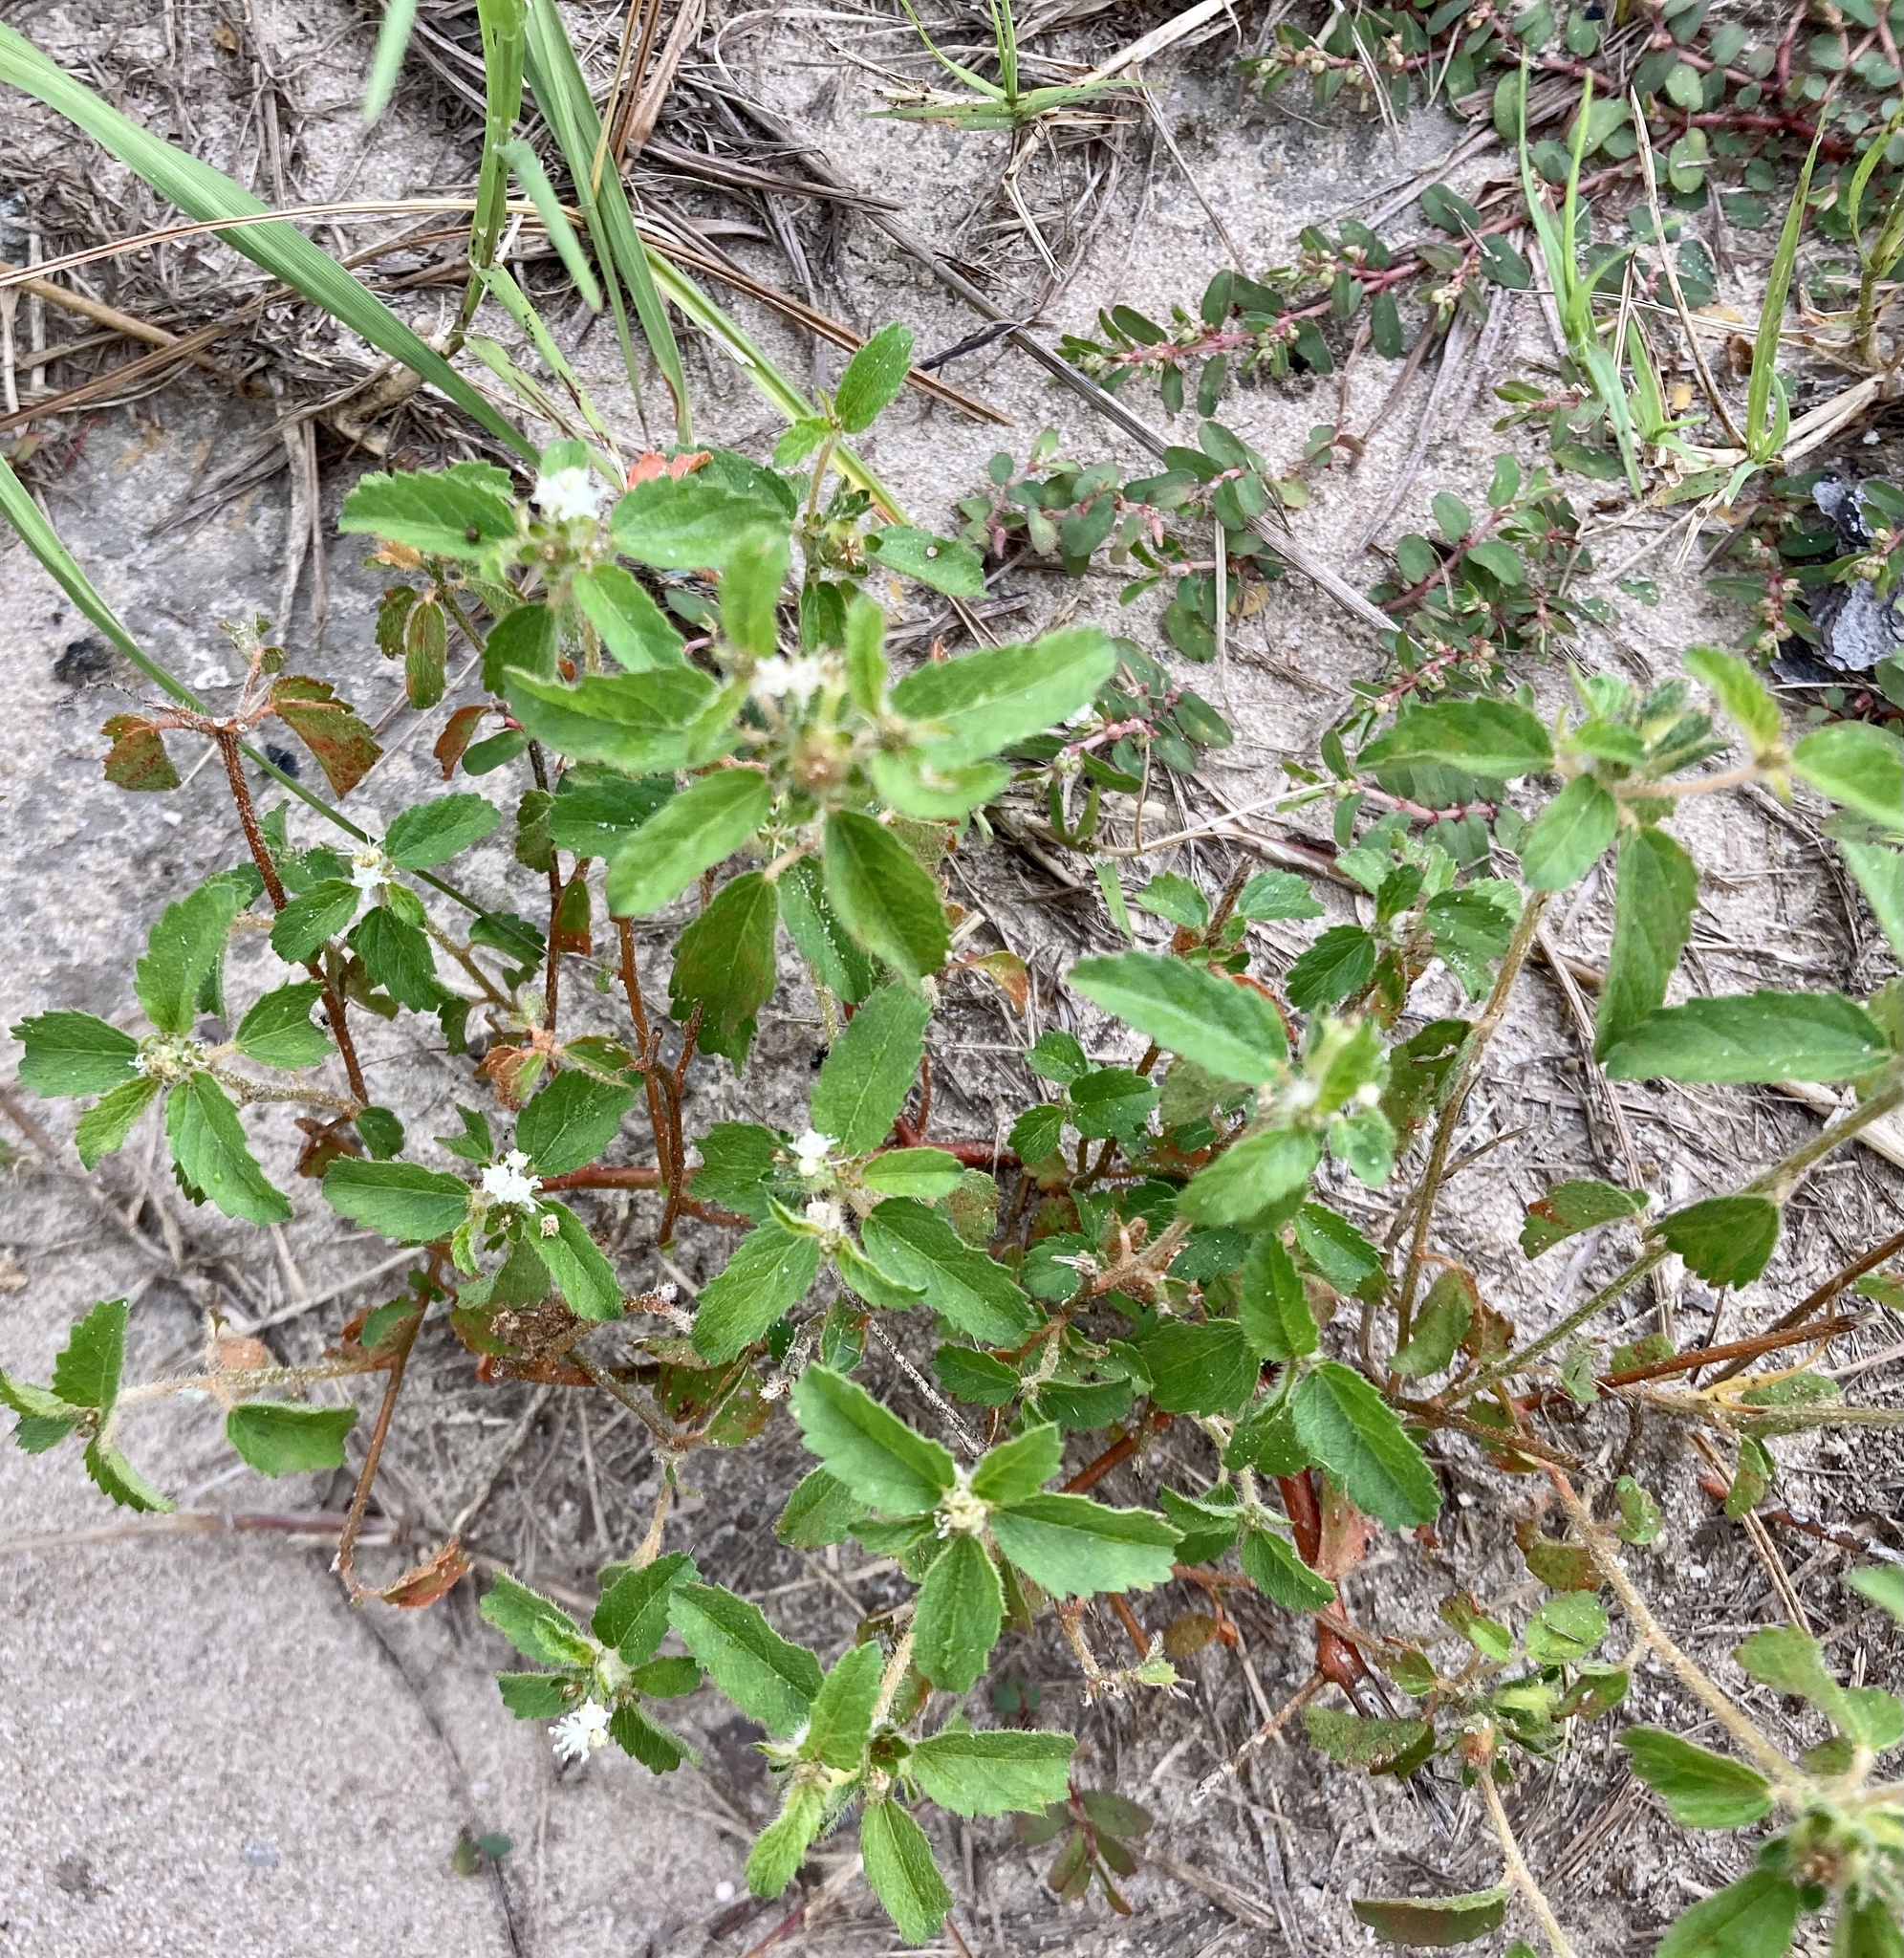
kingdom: Plantae
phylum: Tracheophyta
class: Magnoliopsida
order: Malpighiales
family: Euphorbiaceae
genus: Croton
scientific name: Croton glandulosus
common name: Tropic croton
